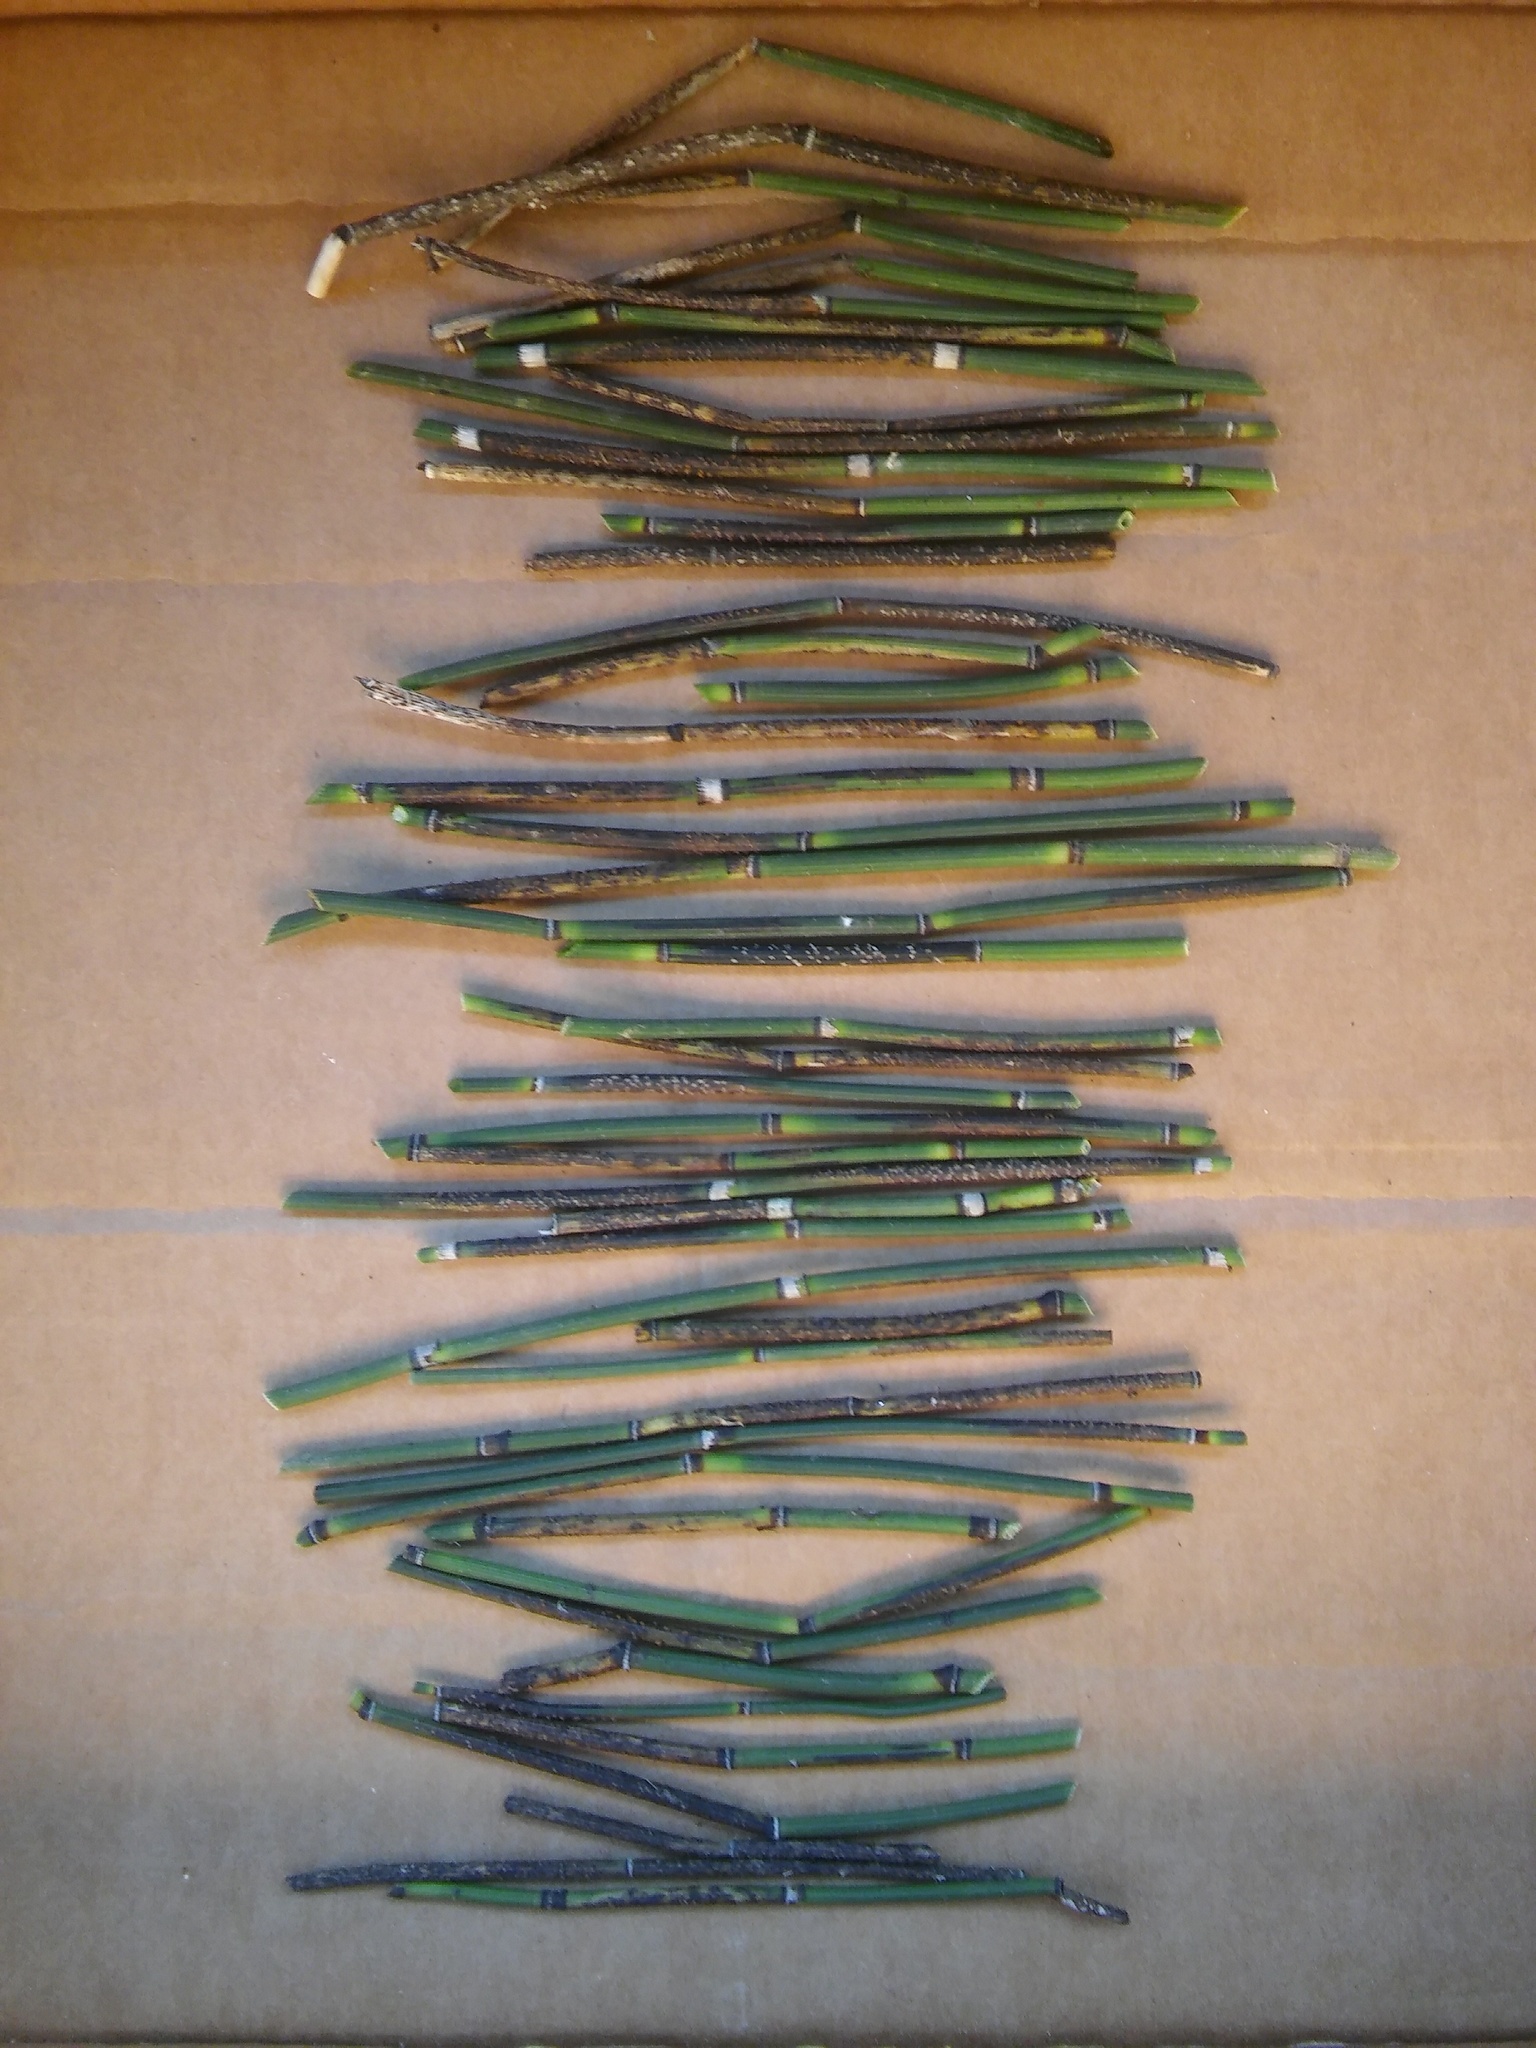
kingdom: Fungi
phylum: Ascomycota
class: Leotiomycetes
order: Helotiales
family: Helotiaceae
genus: Stamnaria
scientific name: Stamnaria americana
